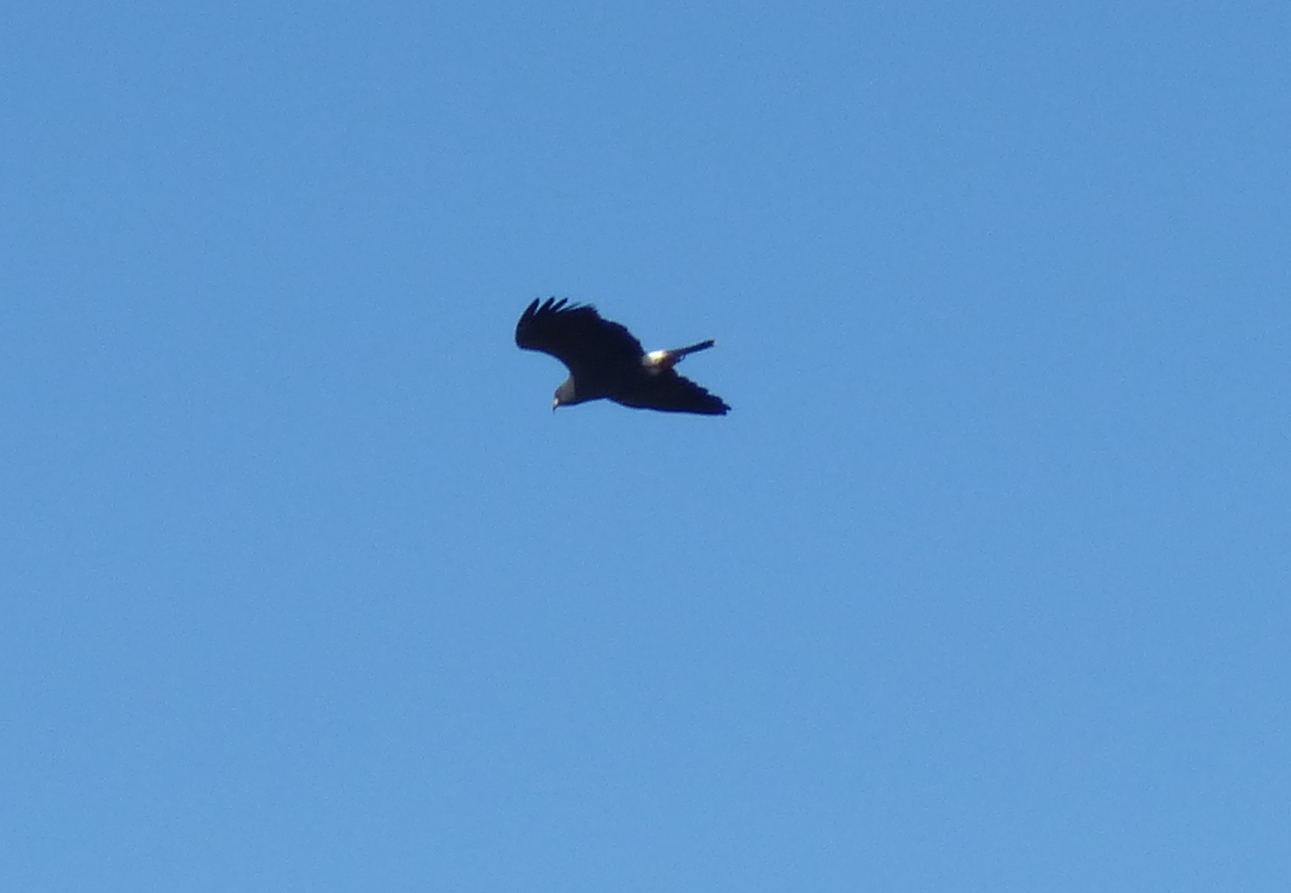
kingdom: Animalia
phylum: Chordata
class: Aves
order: Accipitriformes
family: Accipitridae
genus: Rostrhamus
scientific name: Rostrhamus sociabilis
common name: Snail kite
